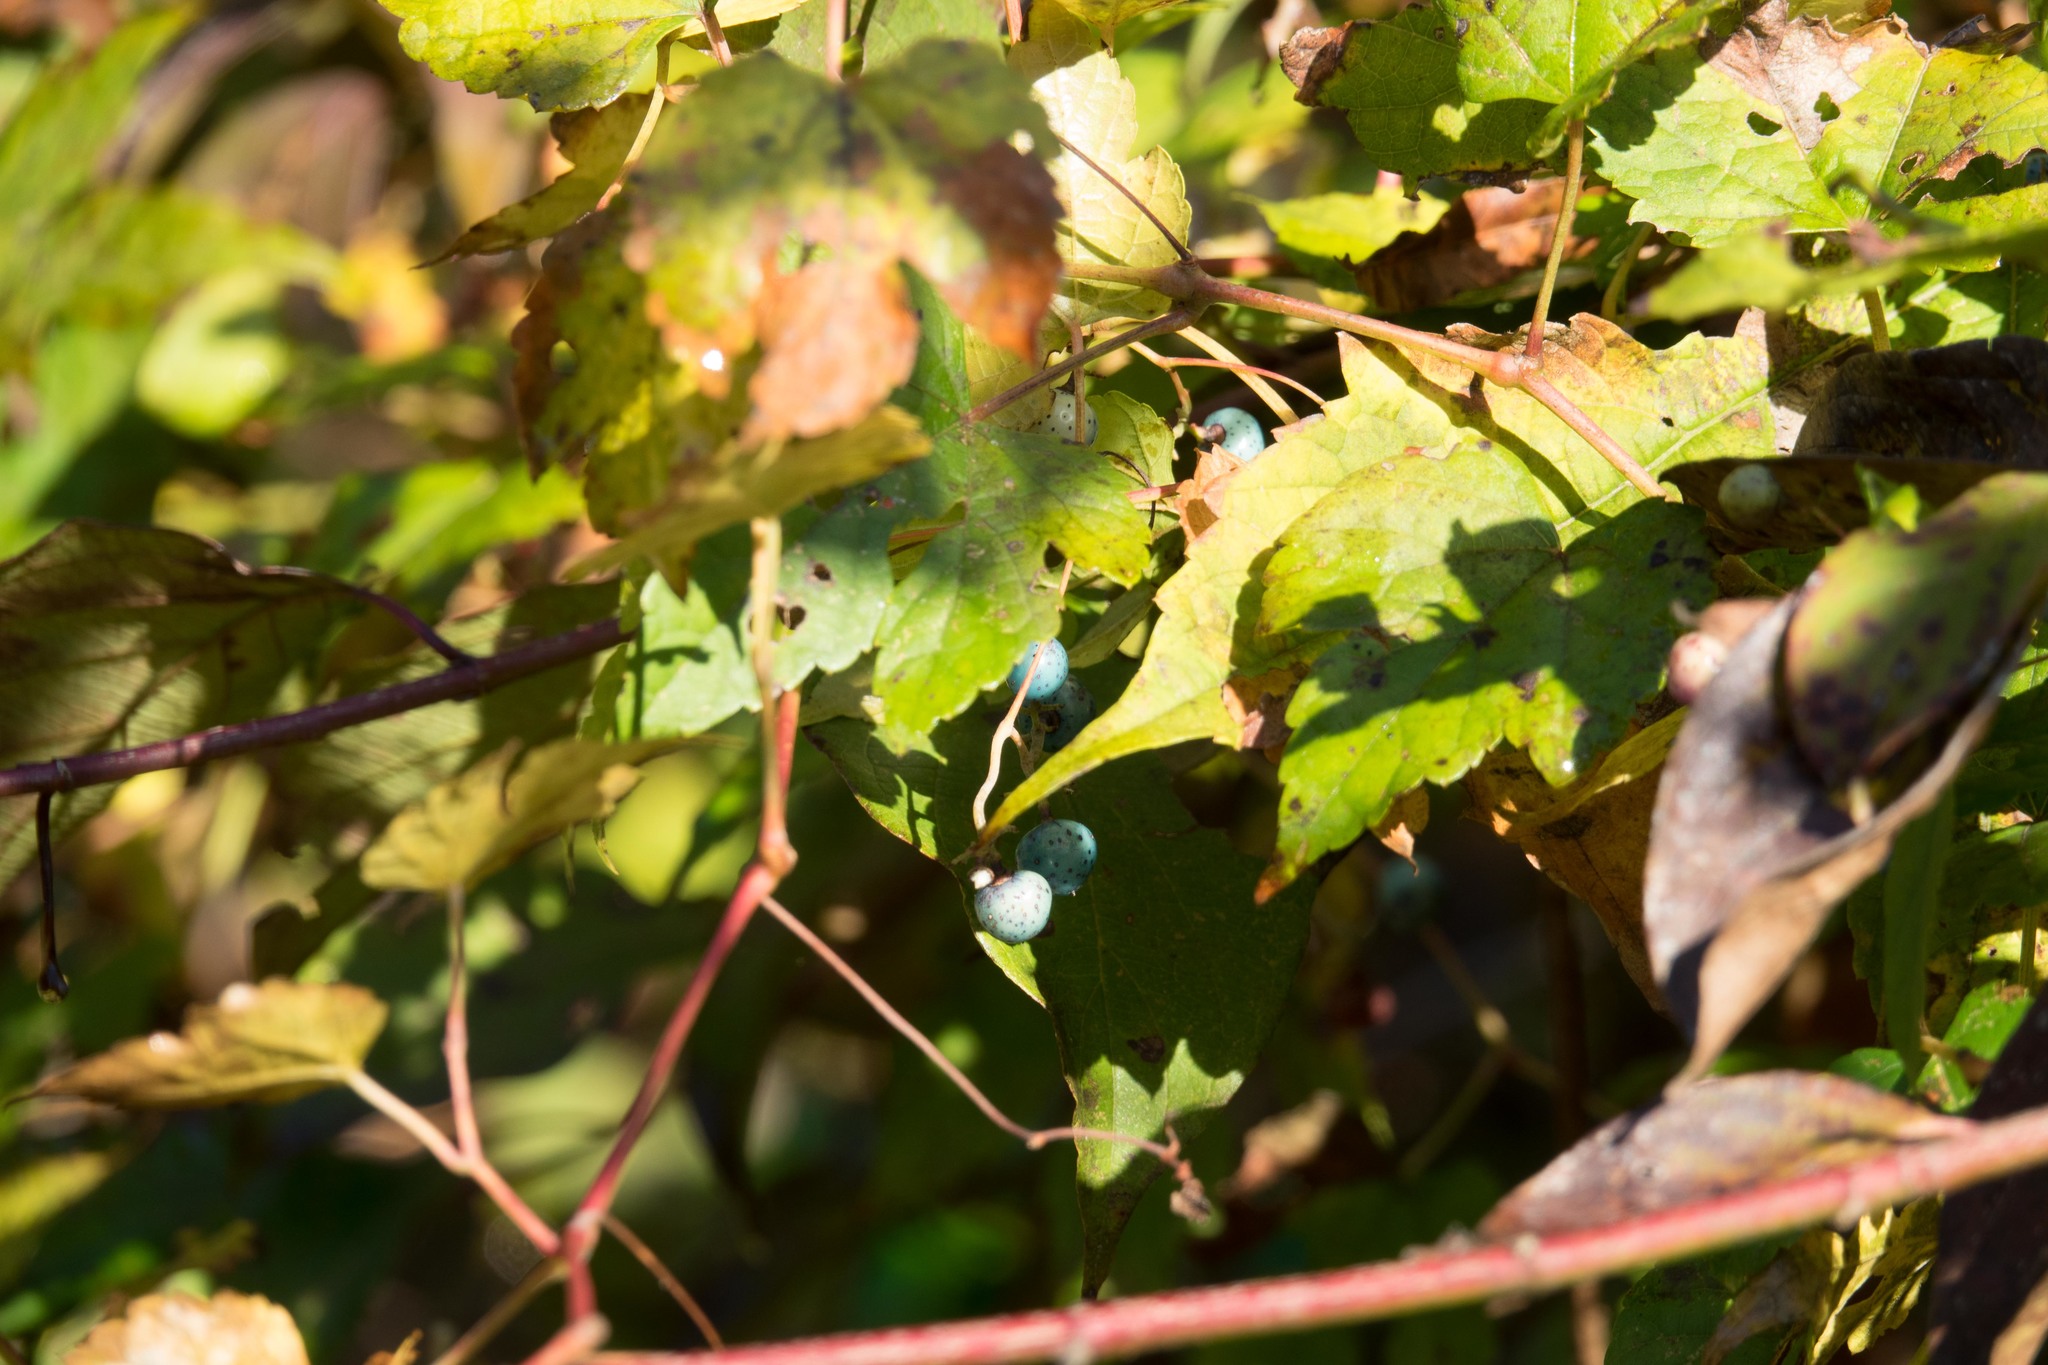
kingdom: Plantae
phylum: Tracheophyta
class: Magnoliopsida
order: Vitales
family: Vitaceae
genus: Ampelopsis
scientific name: Ampelopsis glandulosa
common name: Amur peppervine
